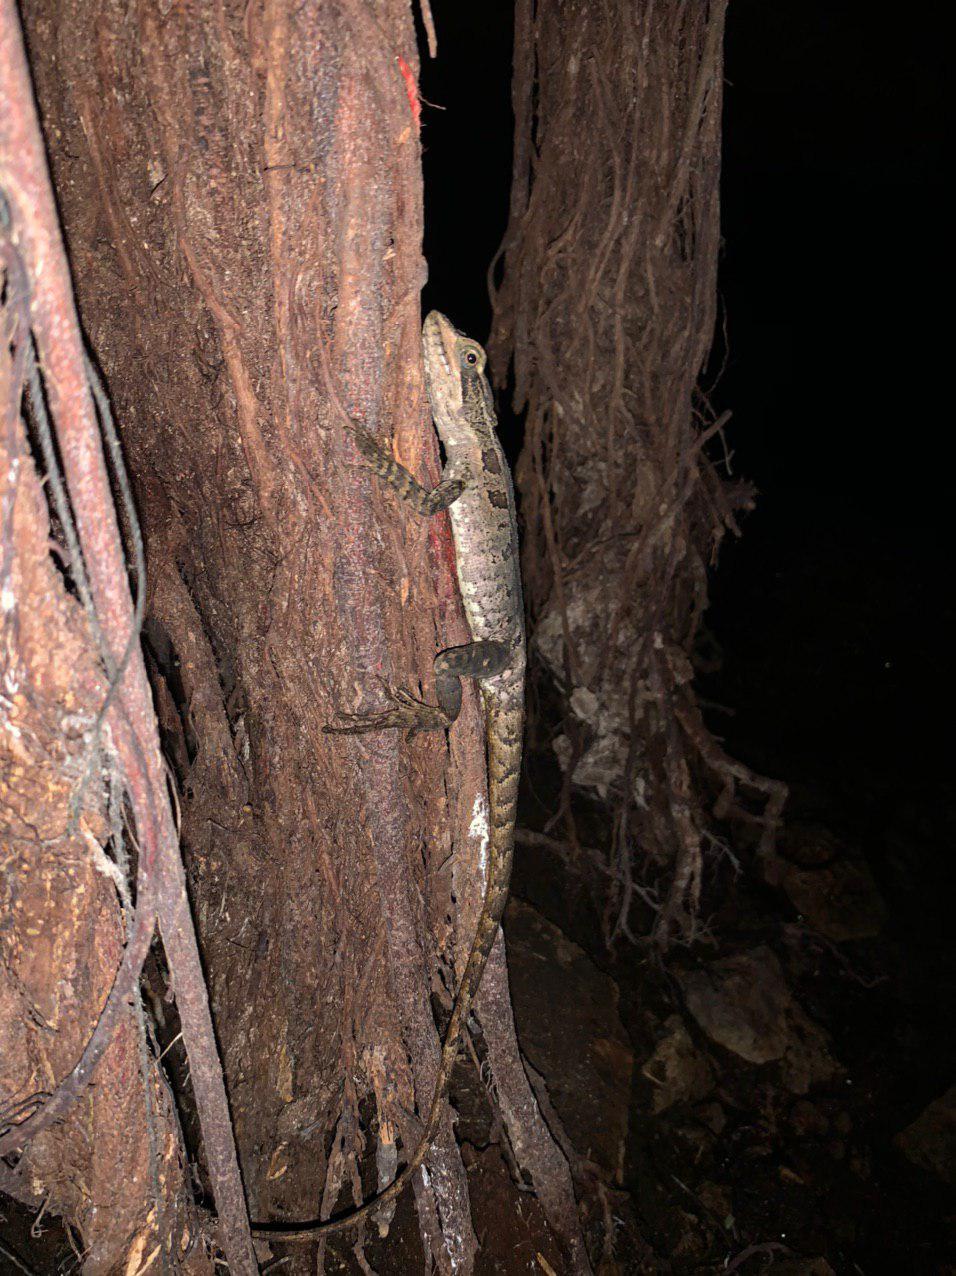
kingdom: Animalia
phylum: Chordata
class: Squamata
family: Corytophanidae
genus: Basiliscus
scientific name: Basiliscus vittatus
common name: Brown basilisk
